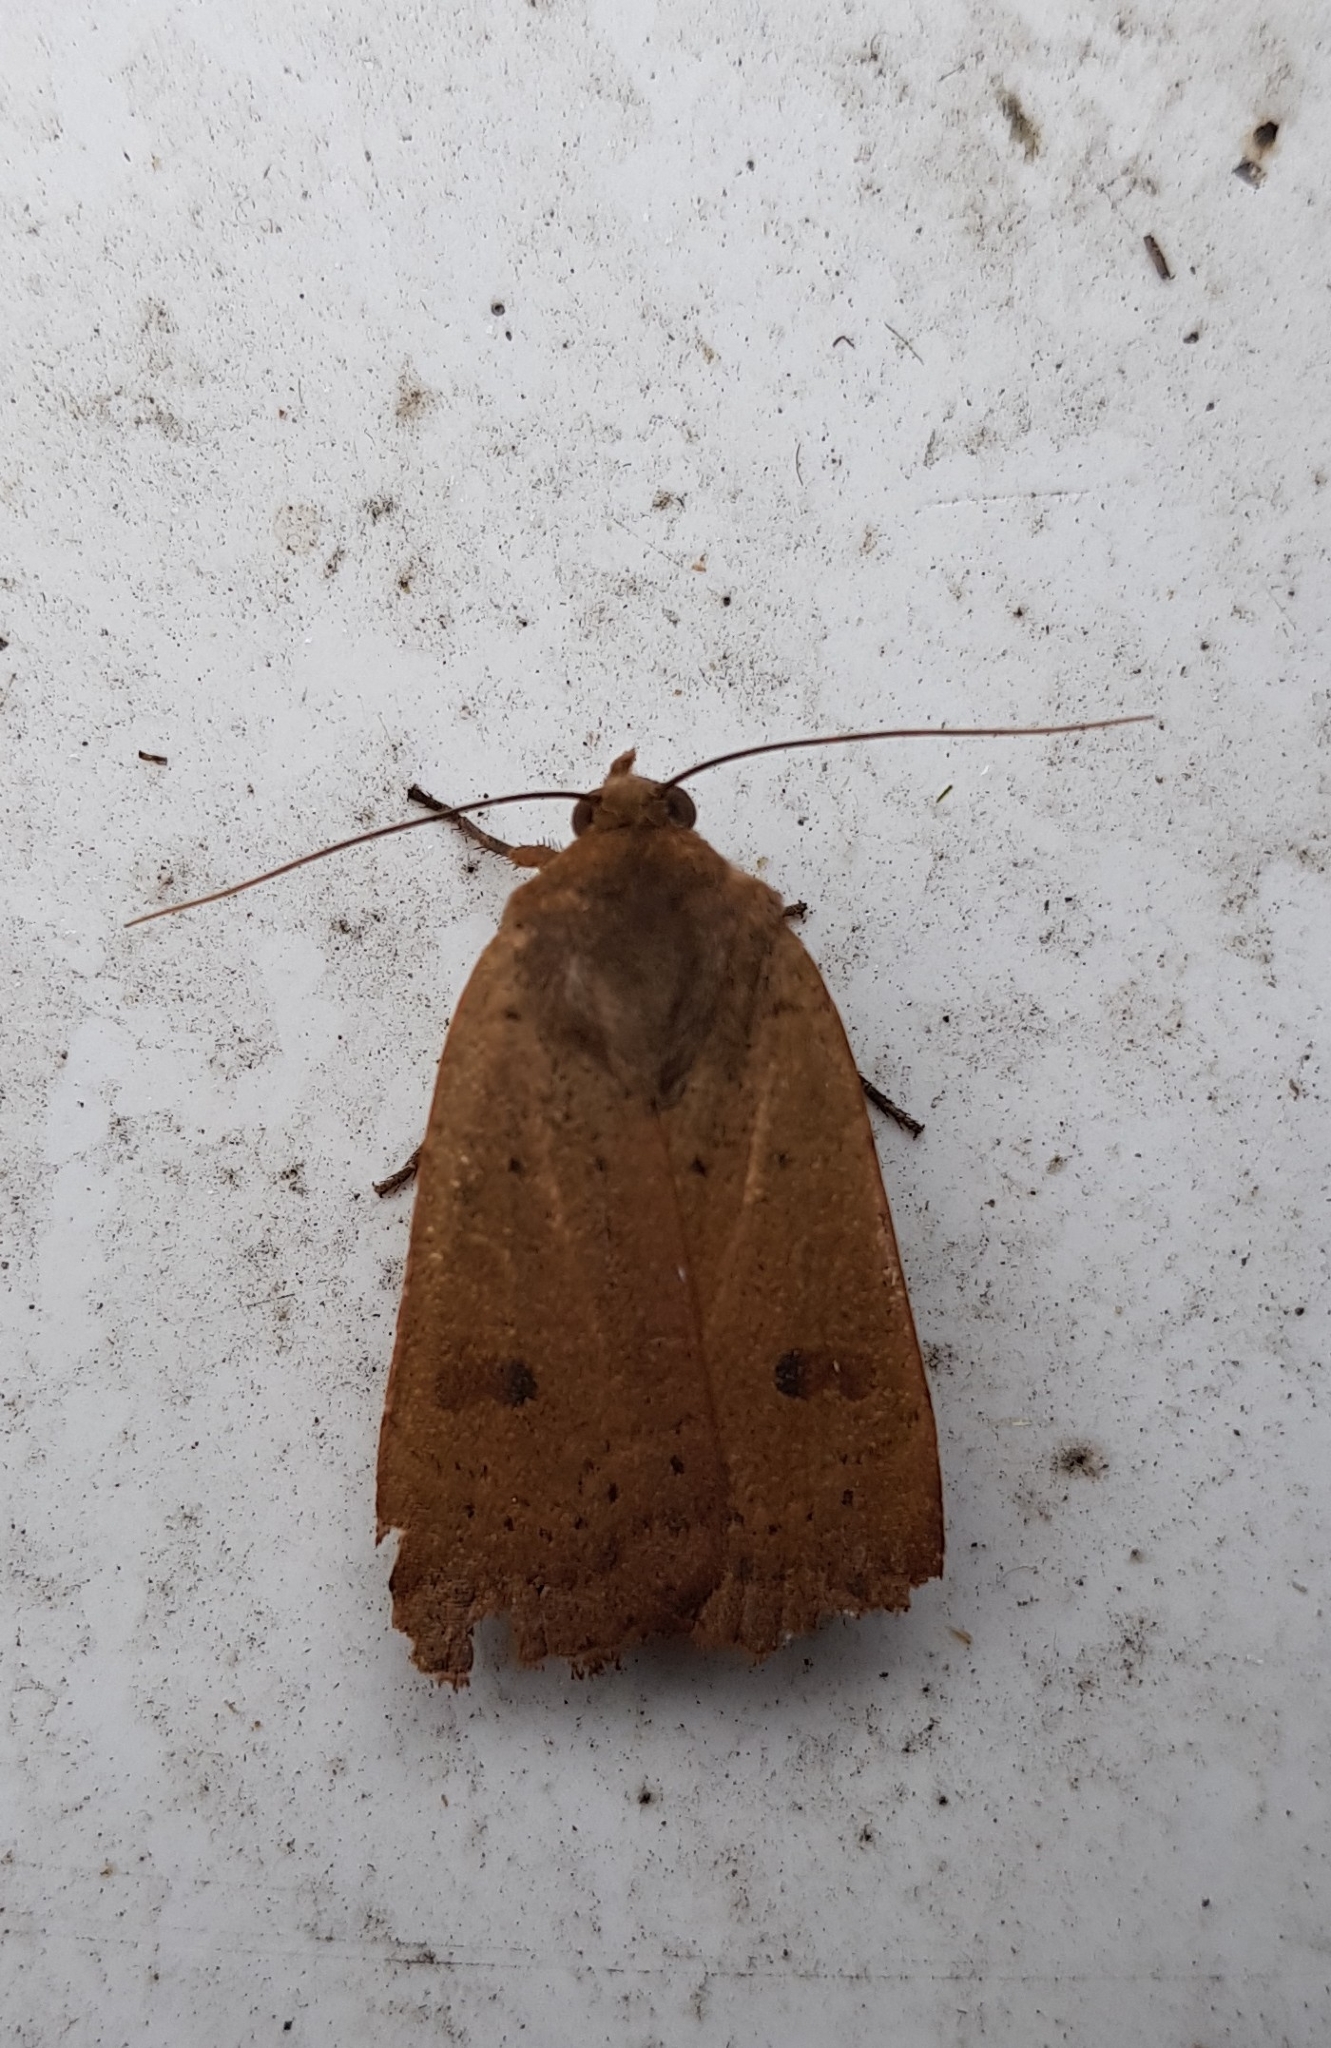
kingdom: Animalia
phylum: Arthropoda
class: Insecta
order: Lepidoptera
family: Noctuidae
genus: Noctua
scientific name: Noctua comes
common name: Lesser yellow underwing
